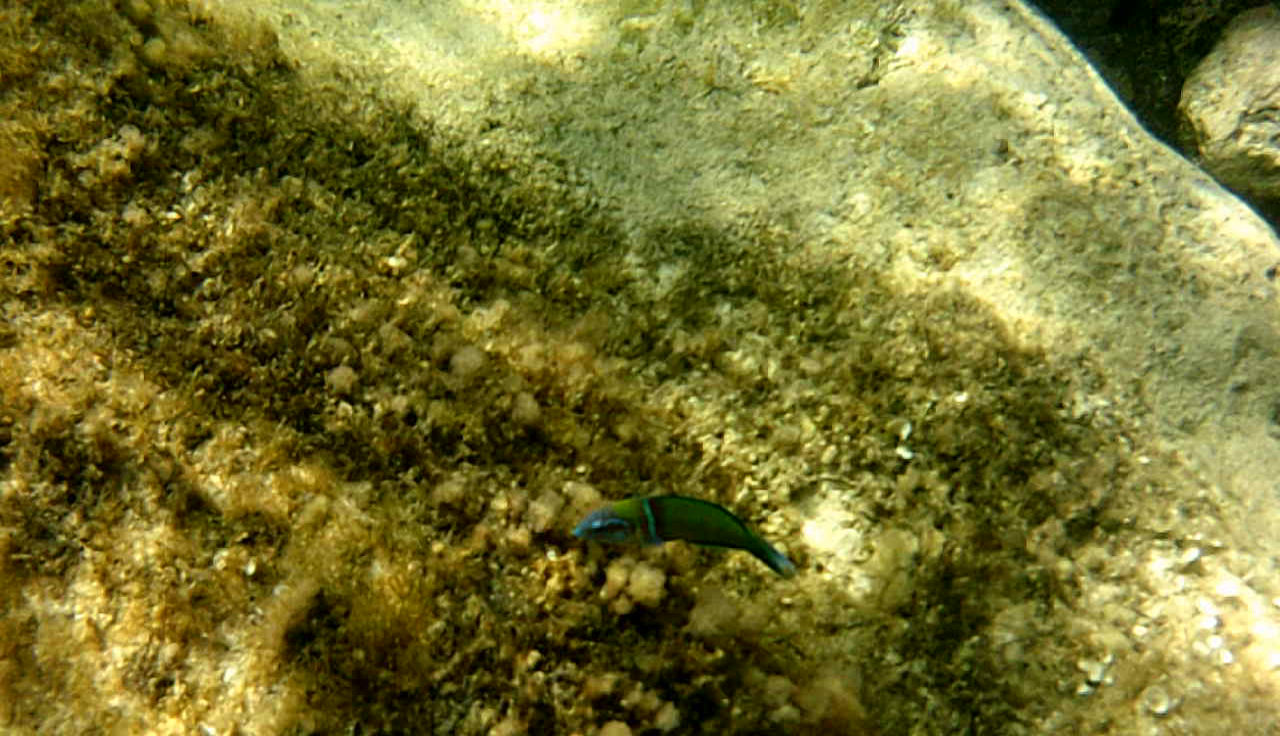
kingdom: Animalia
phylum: Chordata
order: Perciformes
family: Labridae
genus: Thalassoma
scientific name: Thalassoma pavo
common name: Ornate wrasse
